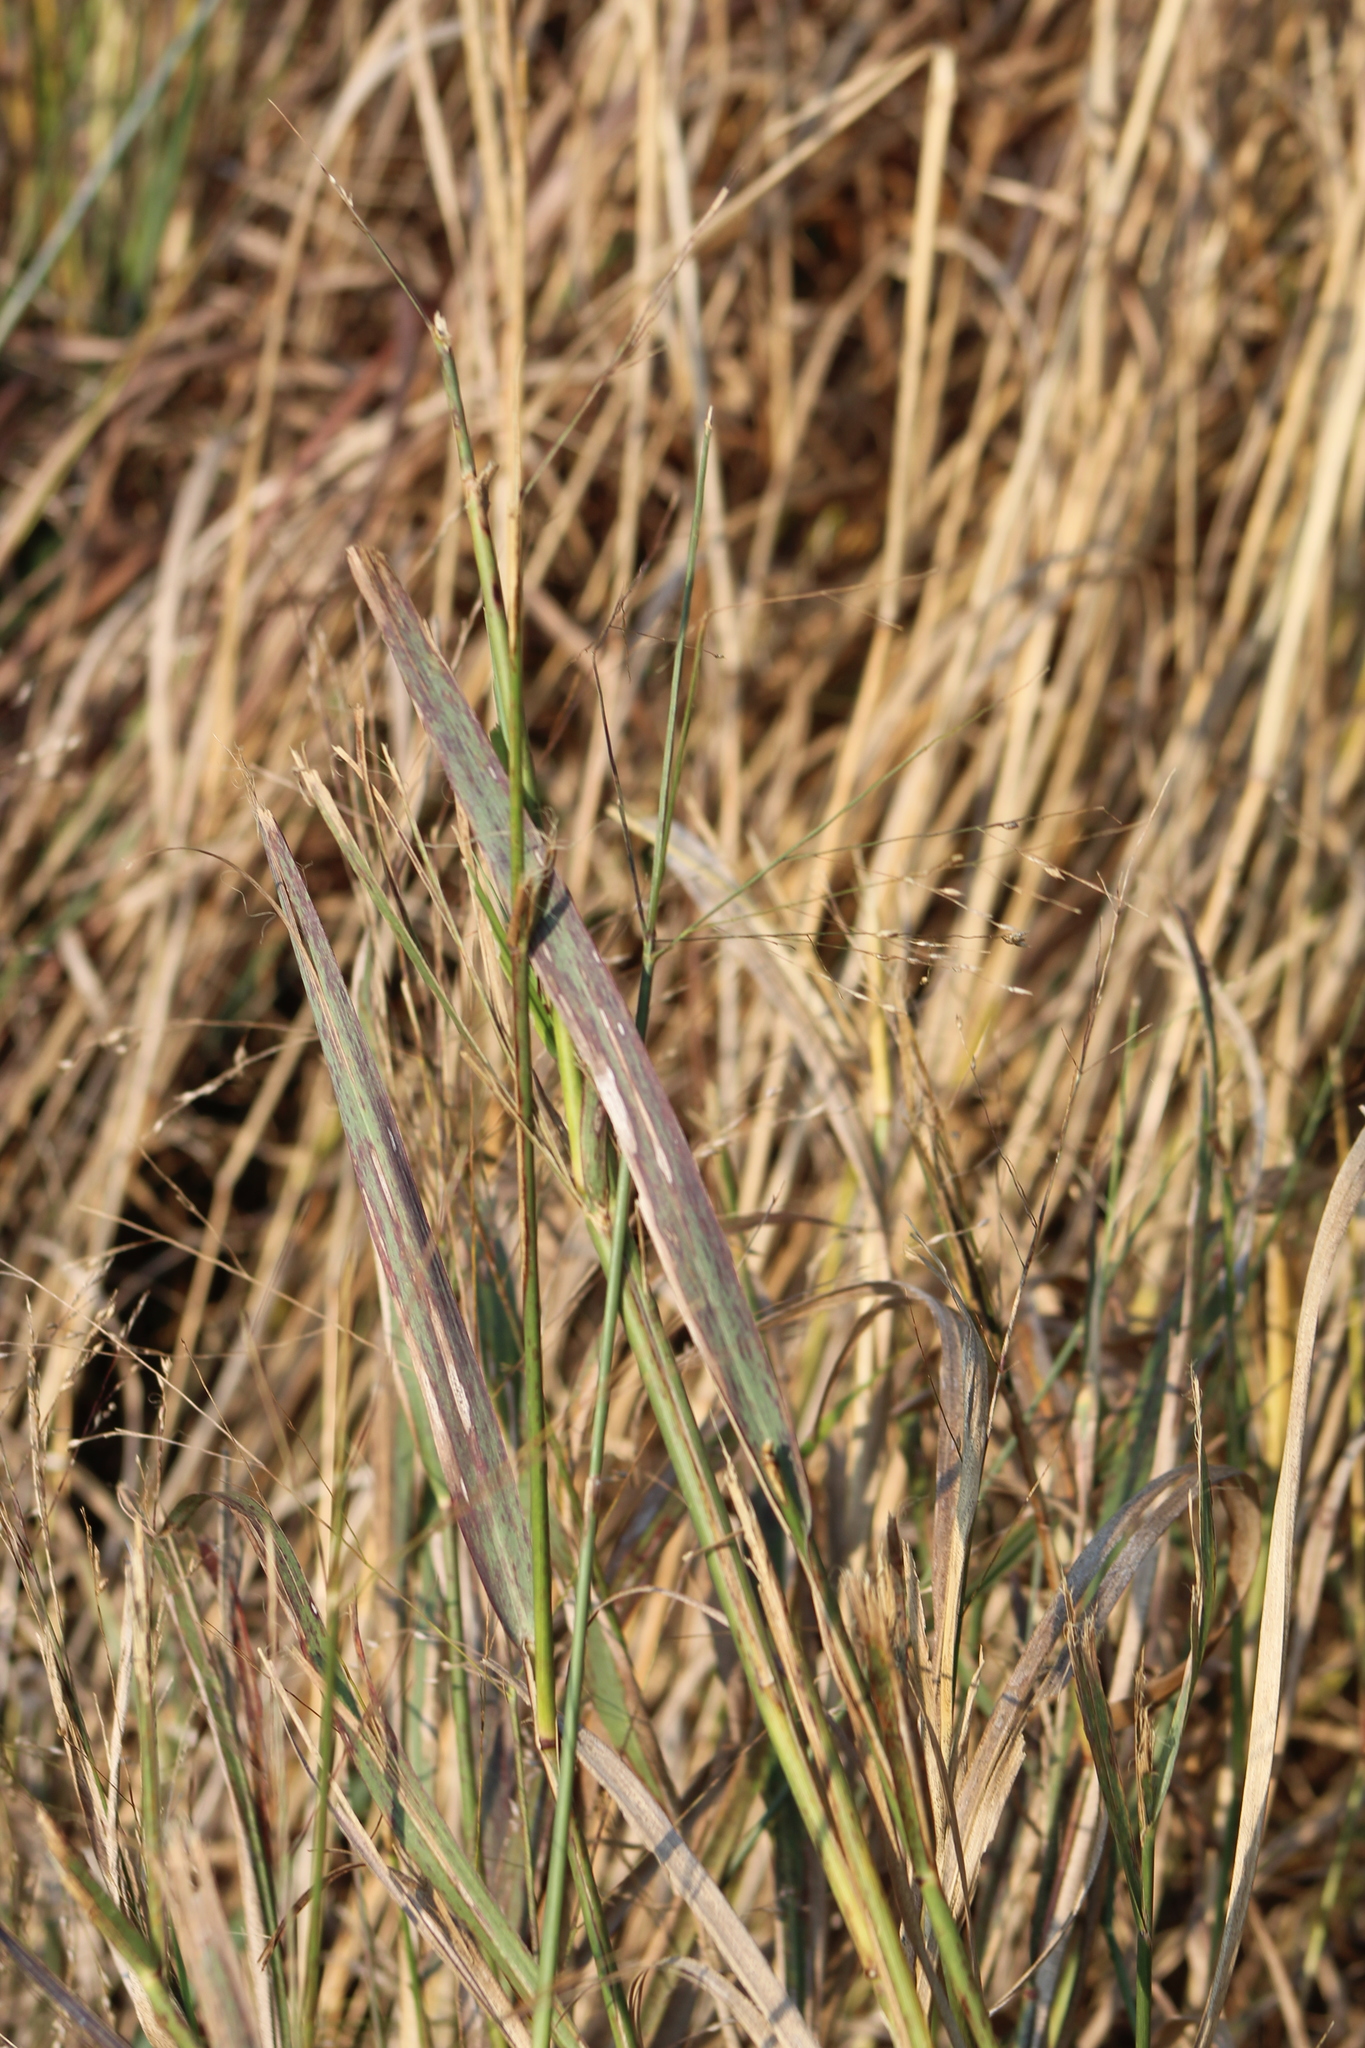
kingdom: Plantae
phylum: Tracheophyta
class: Liliopsida
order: Poales
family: Poaceae
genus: Panicum
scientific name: Panicum virgatum
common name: Switchgrass
